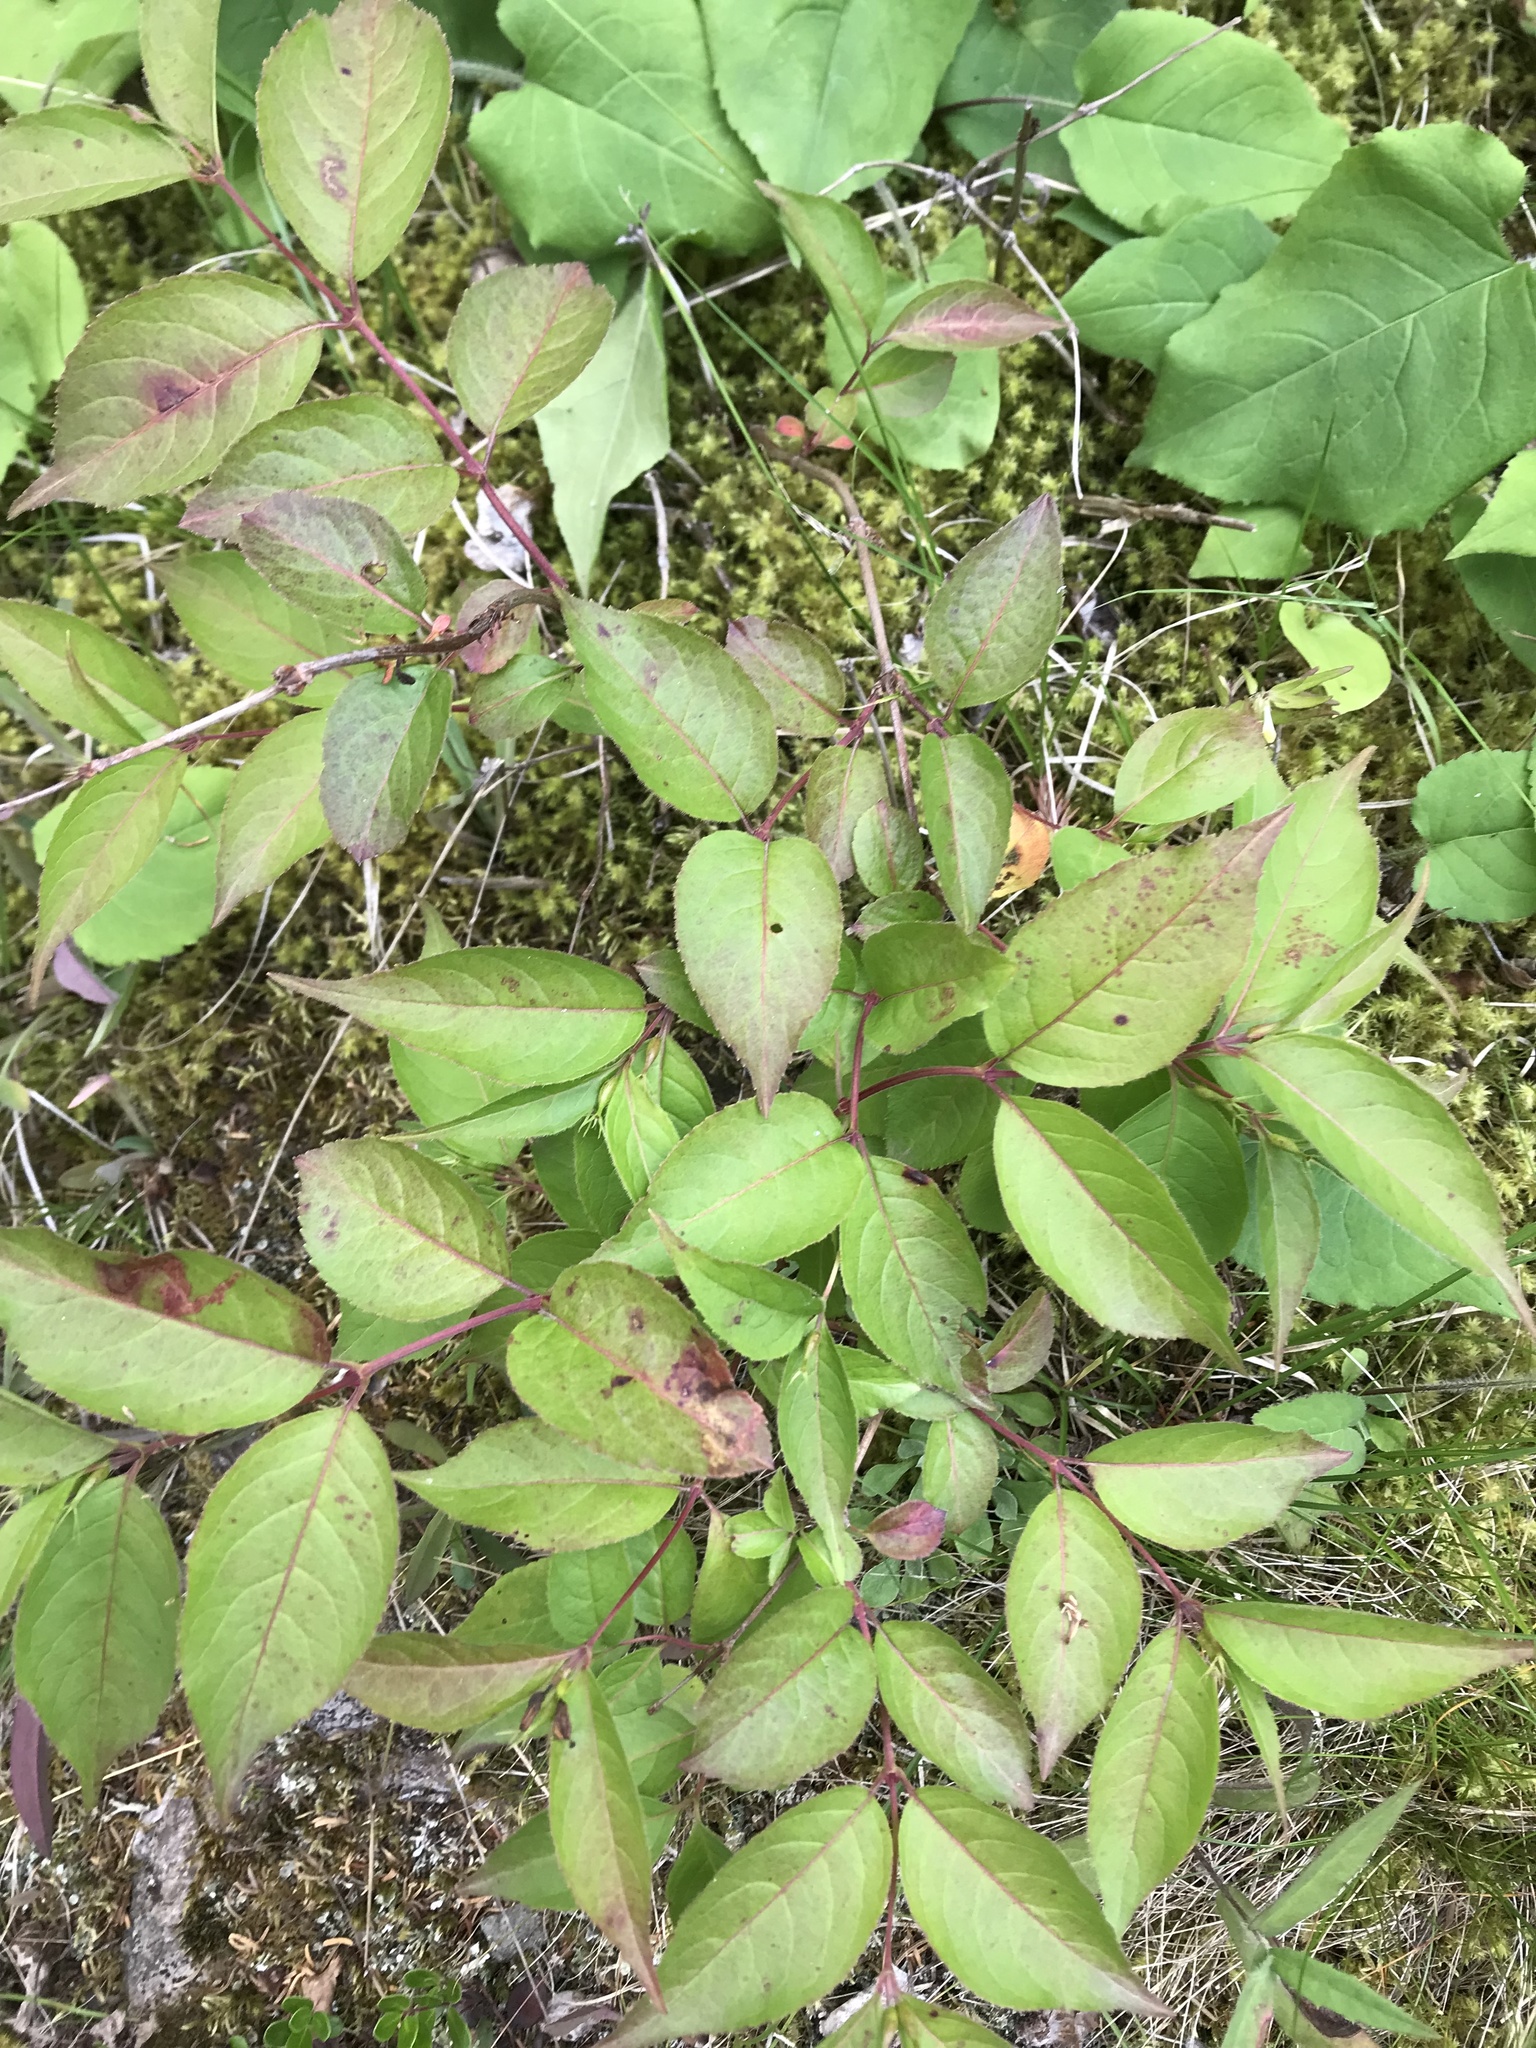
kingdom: Plantae
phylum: Tracheophyta
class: Magnoliopsida
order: Dipsacales
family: Caprifoliaceae
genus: Diervilla
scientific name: Diervilla lonicera
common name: Bush-honeysuckle
